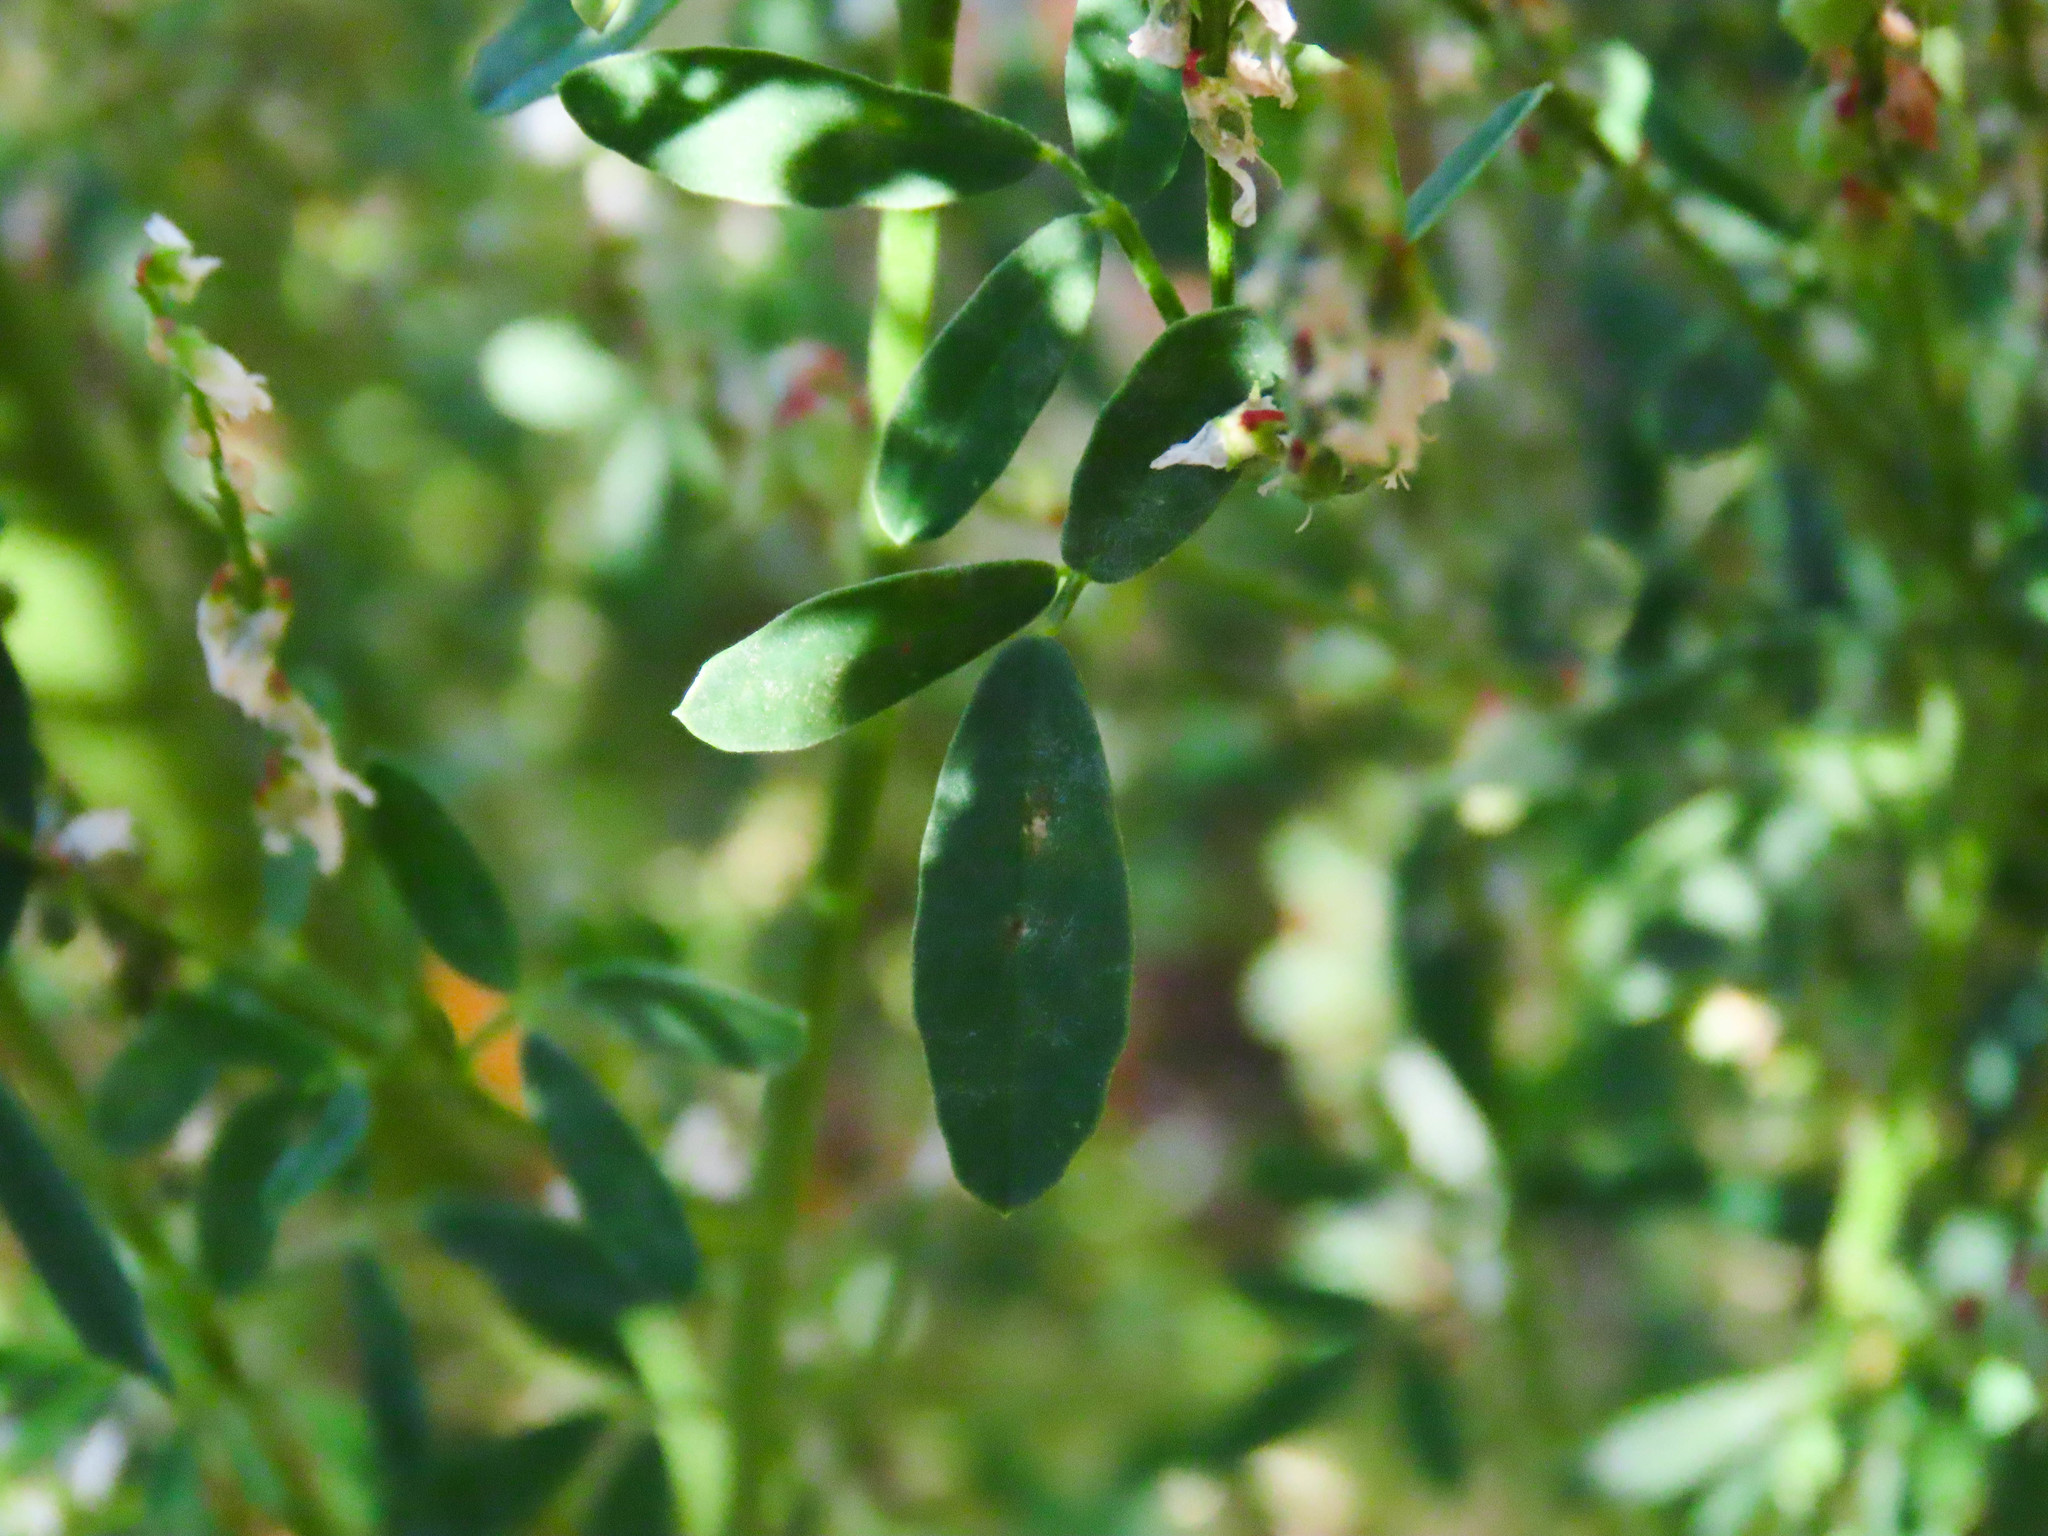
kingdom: Plantae
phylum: Tracheophyta
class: Magnoliopsida
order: Fabales
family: Fabaceae
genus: Melilotus
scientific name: Melilotus albus
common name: White melilot
